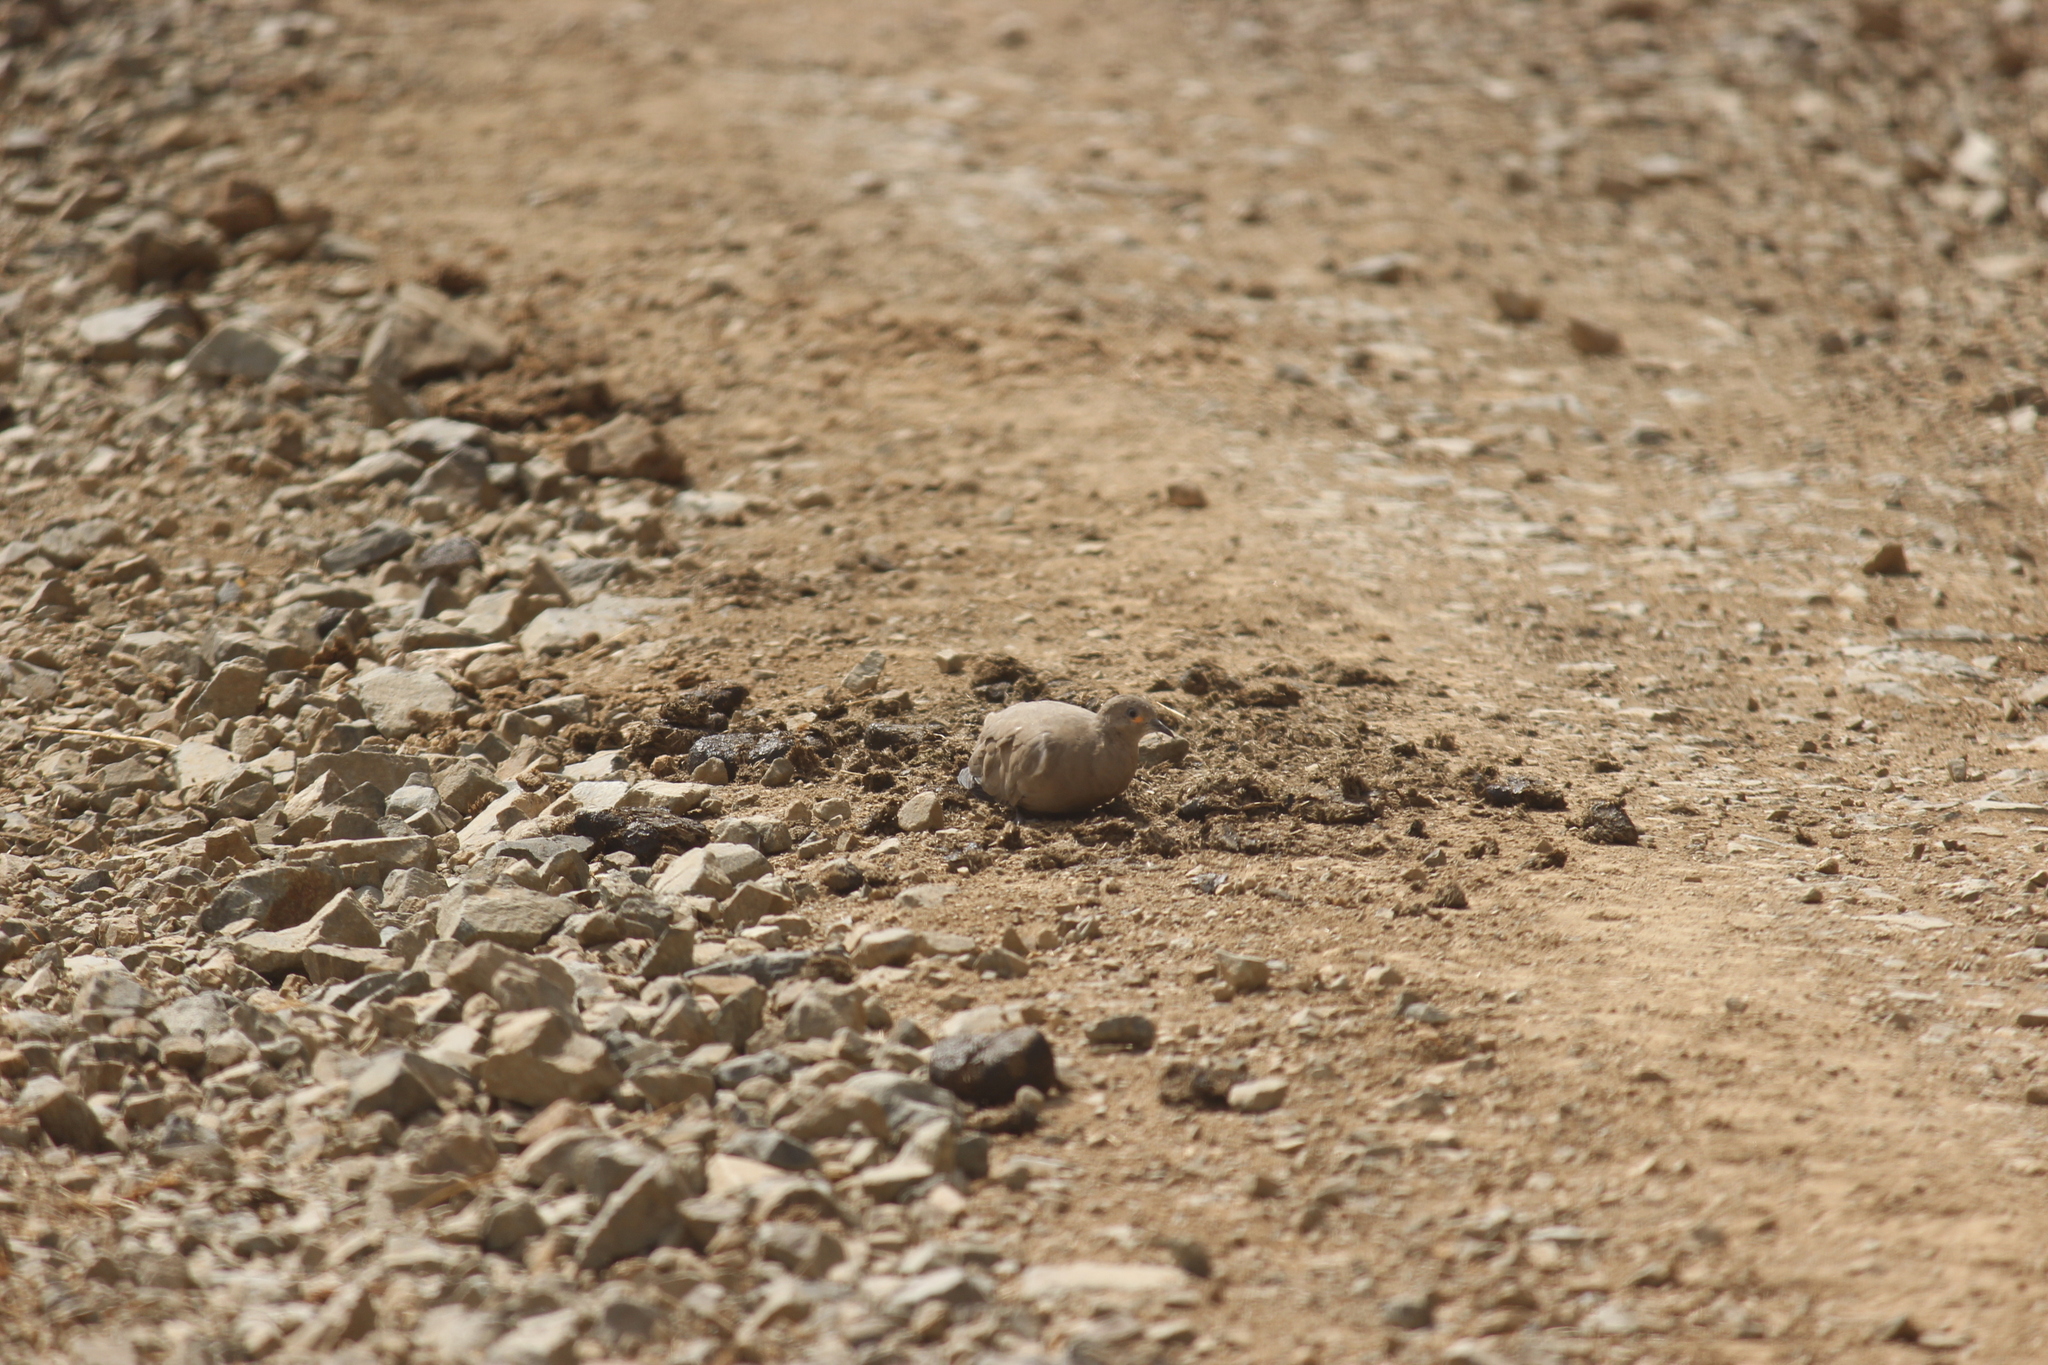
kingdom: Animalia
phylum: Chordata
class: Aves
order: Columbiformes
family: Columbidae
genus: Metriopelia
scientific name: Metriopelia melanoptera
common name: Black-winged ground dove
